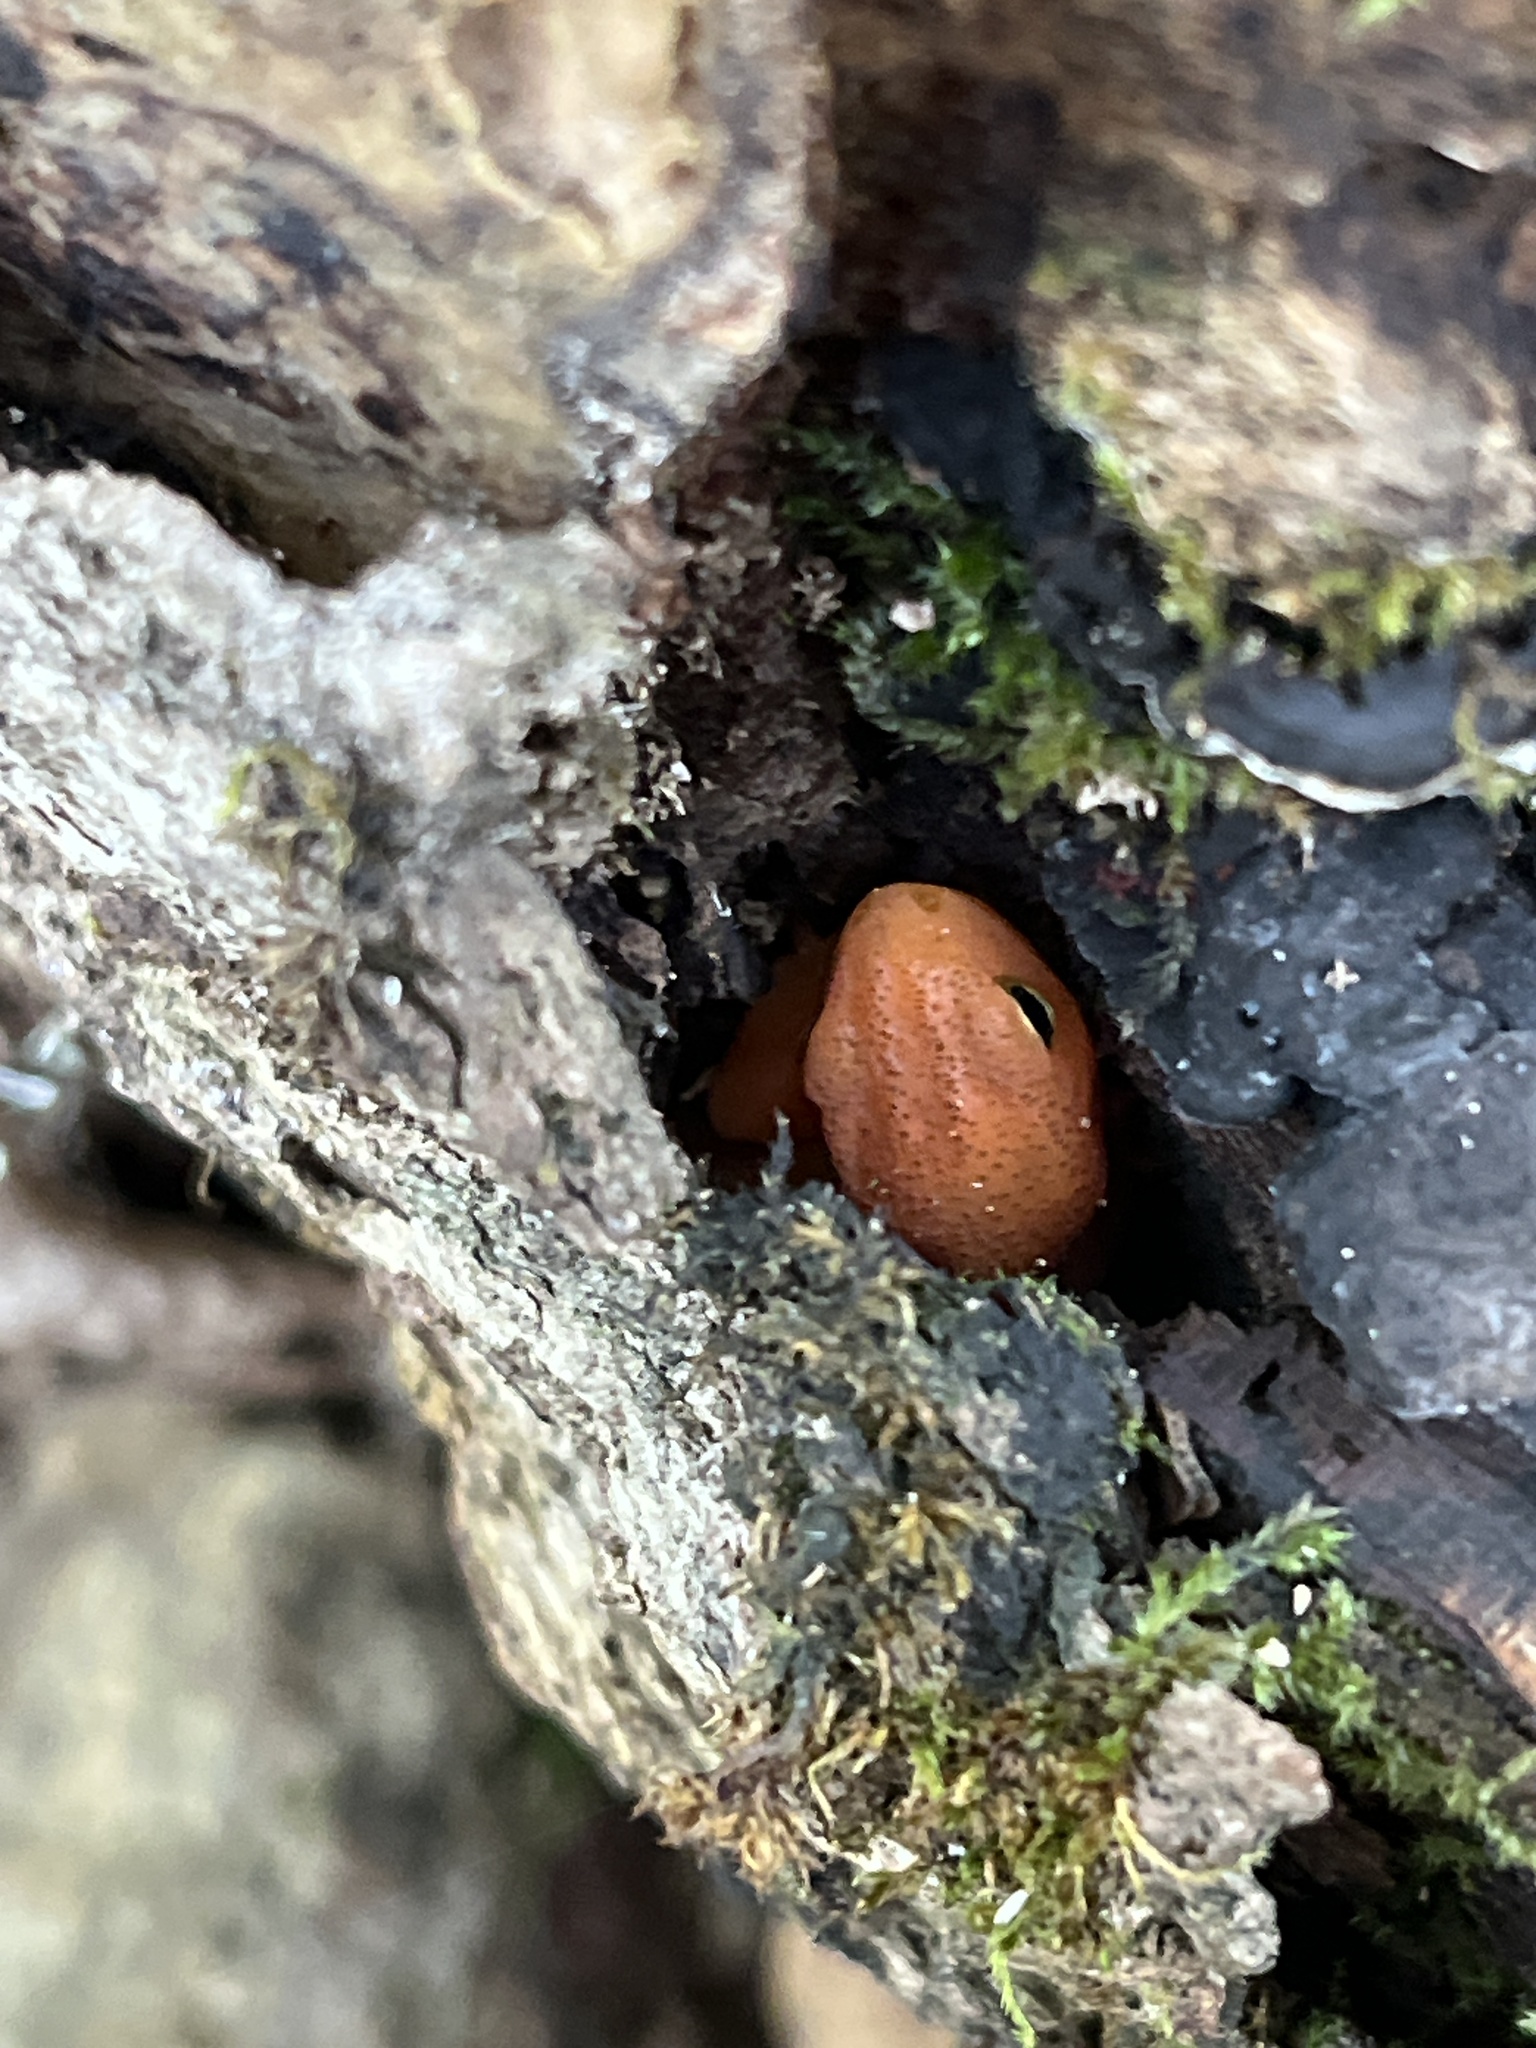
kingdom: Animalia
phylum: Chordata
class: Amphibia
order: Caudata
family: Salamandridae
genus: Notophthalmus
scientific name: Notophthalmus viridescens
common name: Eastern newt
